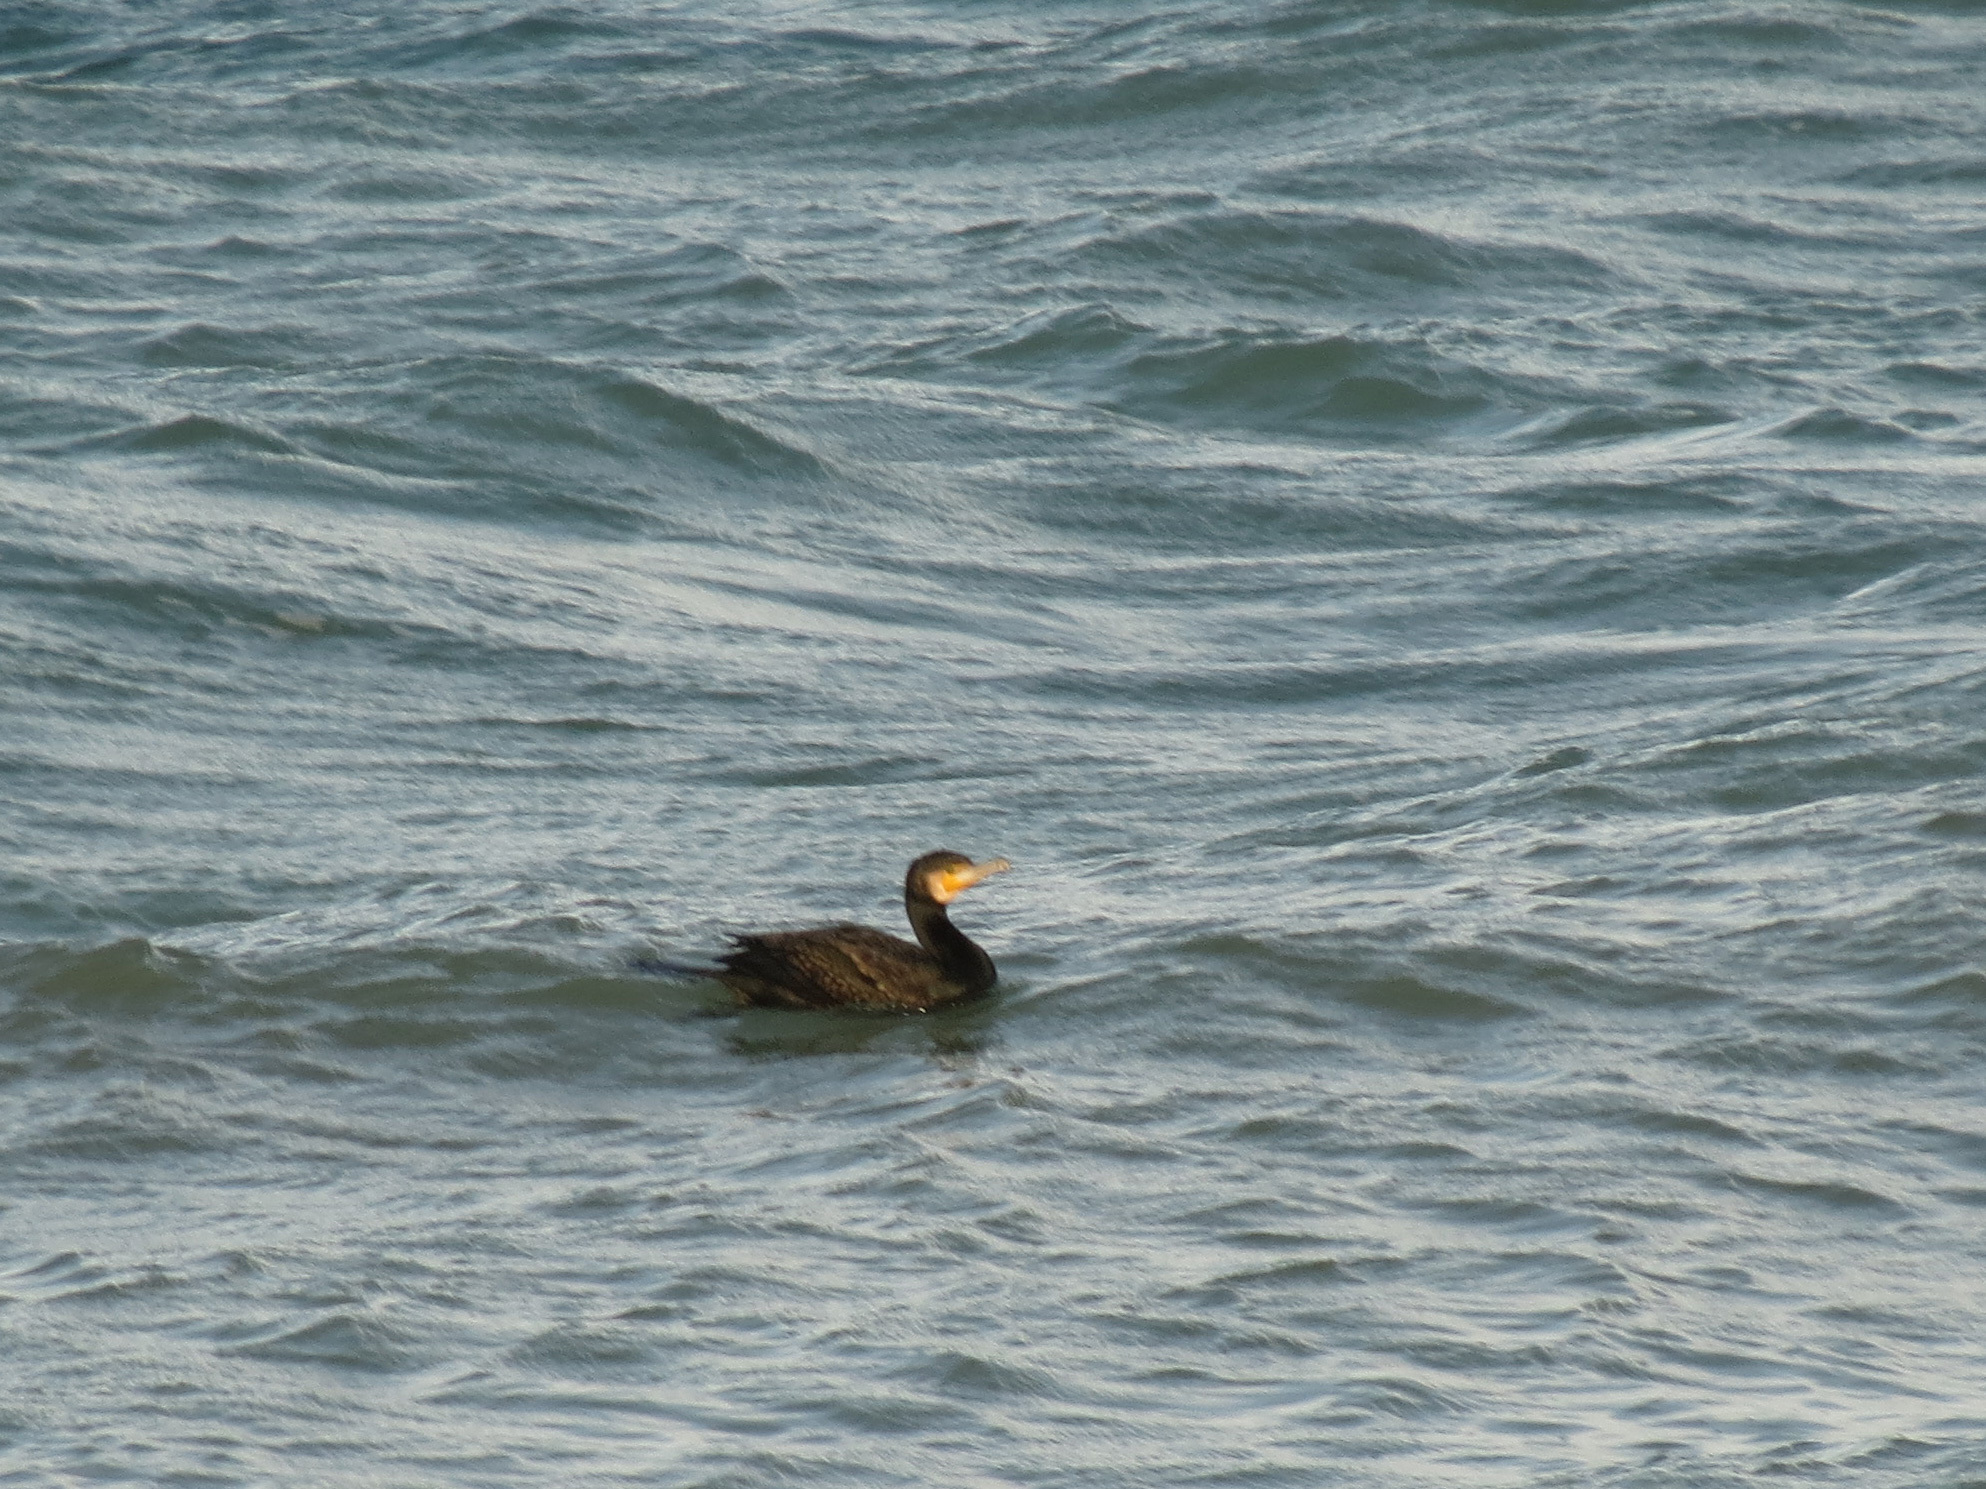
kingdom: Animalia
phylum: Chordata
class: Aves
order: Suliformes
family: Phalacrocoracidae
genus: Phalacrocorax
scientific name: Phalacrocorax carbo
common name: Great cormorant
